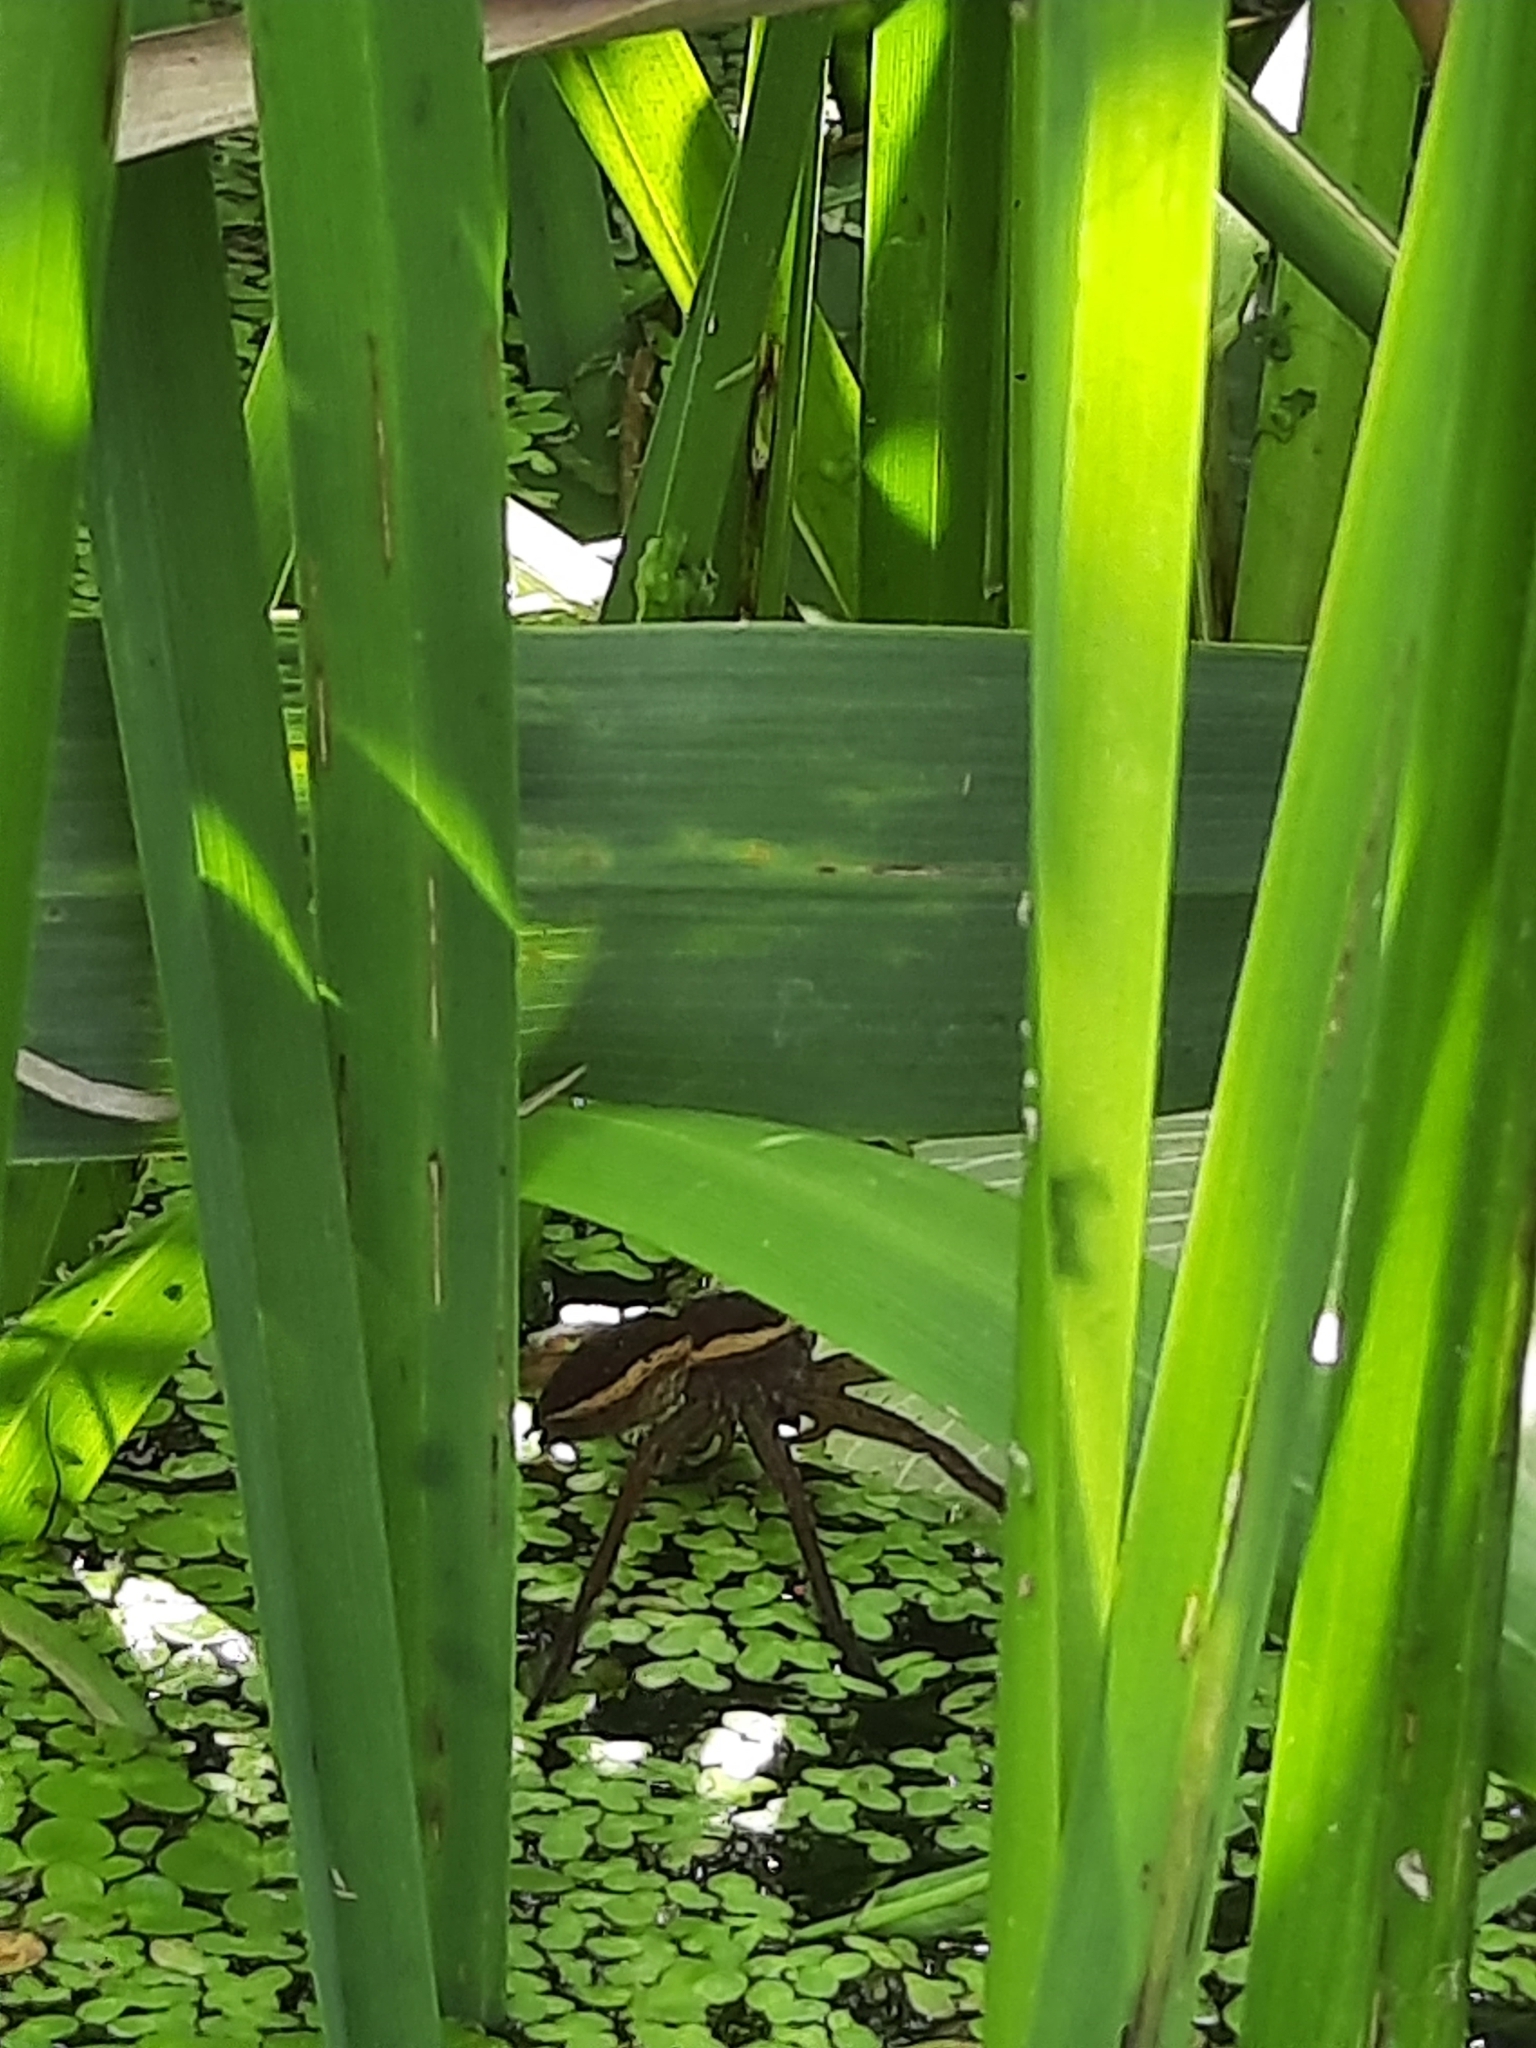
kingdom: Animalia
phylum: Arthropoda
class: Arachnida
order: Araneae
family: Pisauridae
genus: Dolomedes
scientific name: Dolomedes
